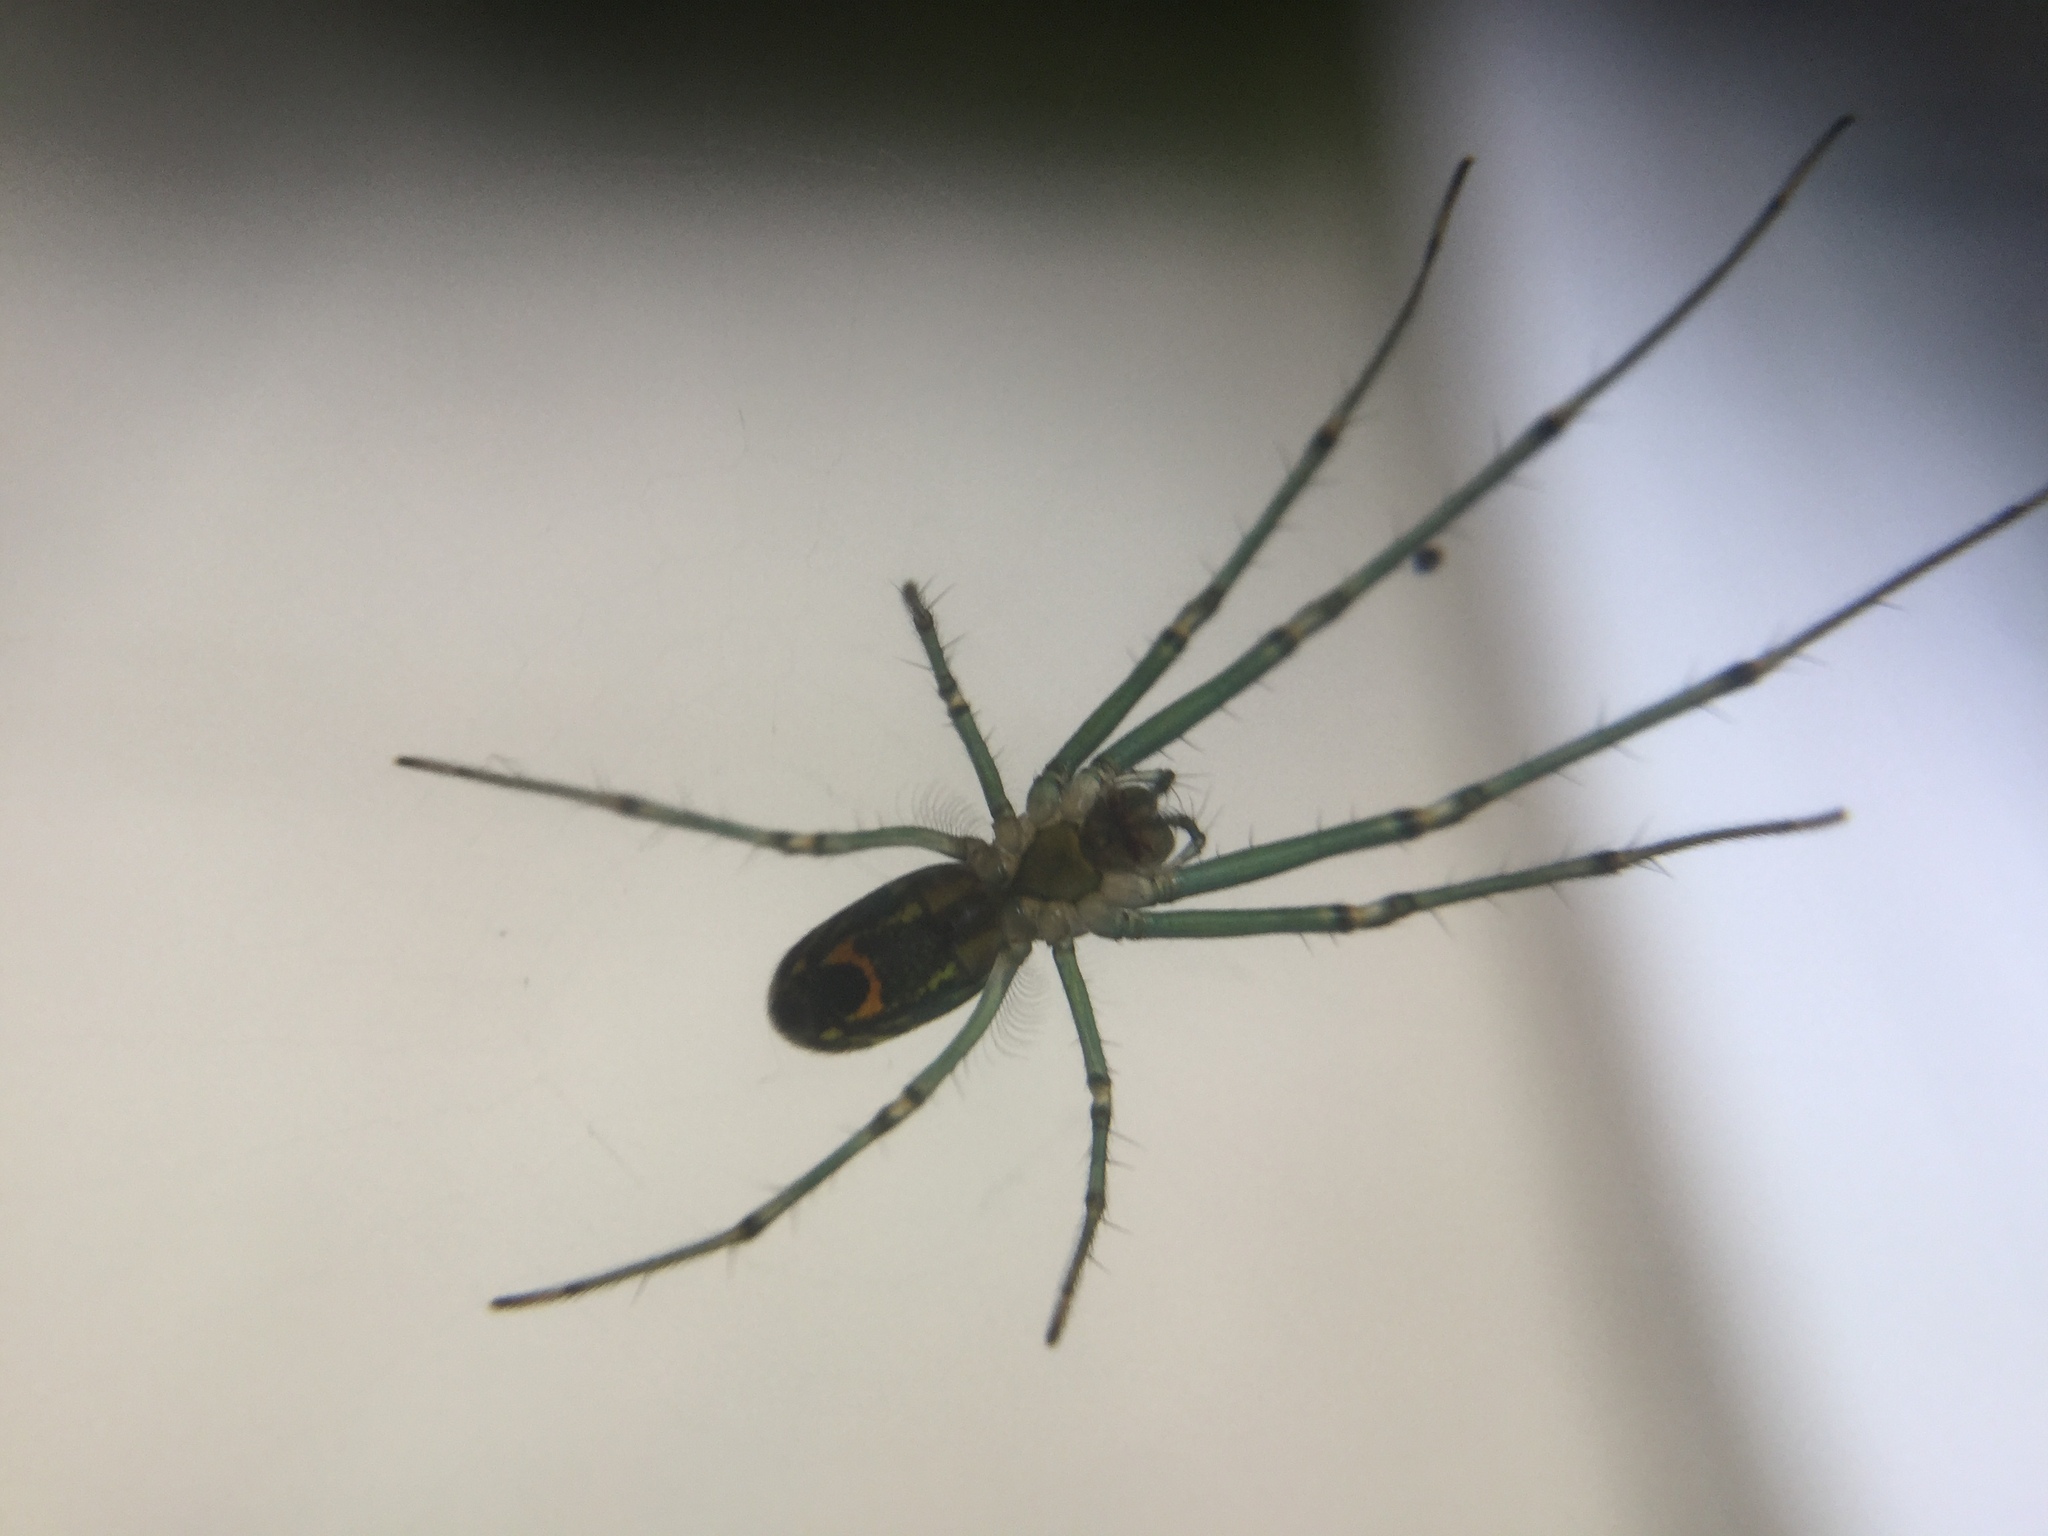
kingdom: Animalia
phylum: Arthropoda
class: Arachnida
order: Araneae
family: Tetragnathidae
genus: Leucauge
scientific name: Leucauge venusta
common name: Longjawed orb weavers
